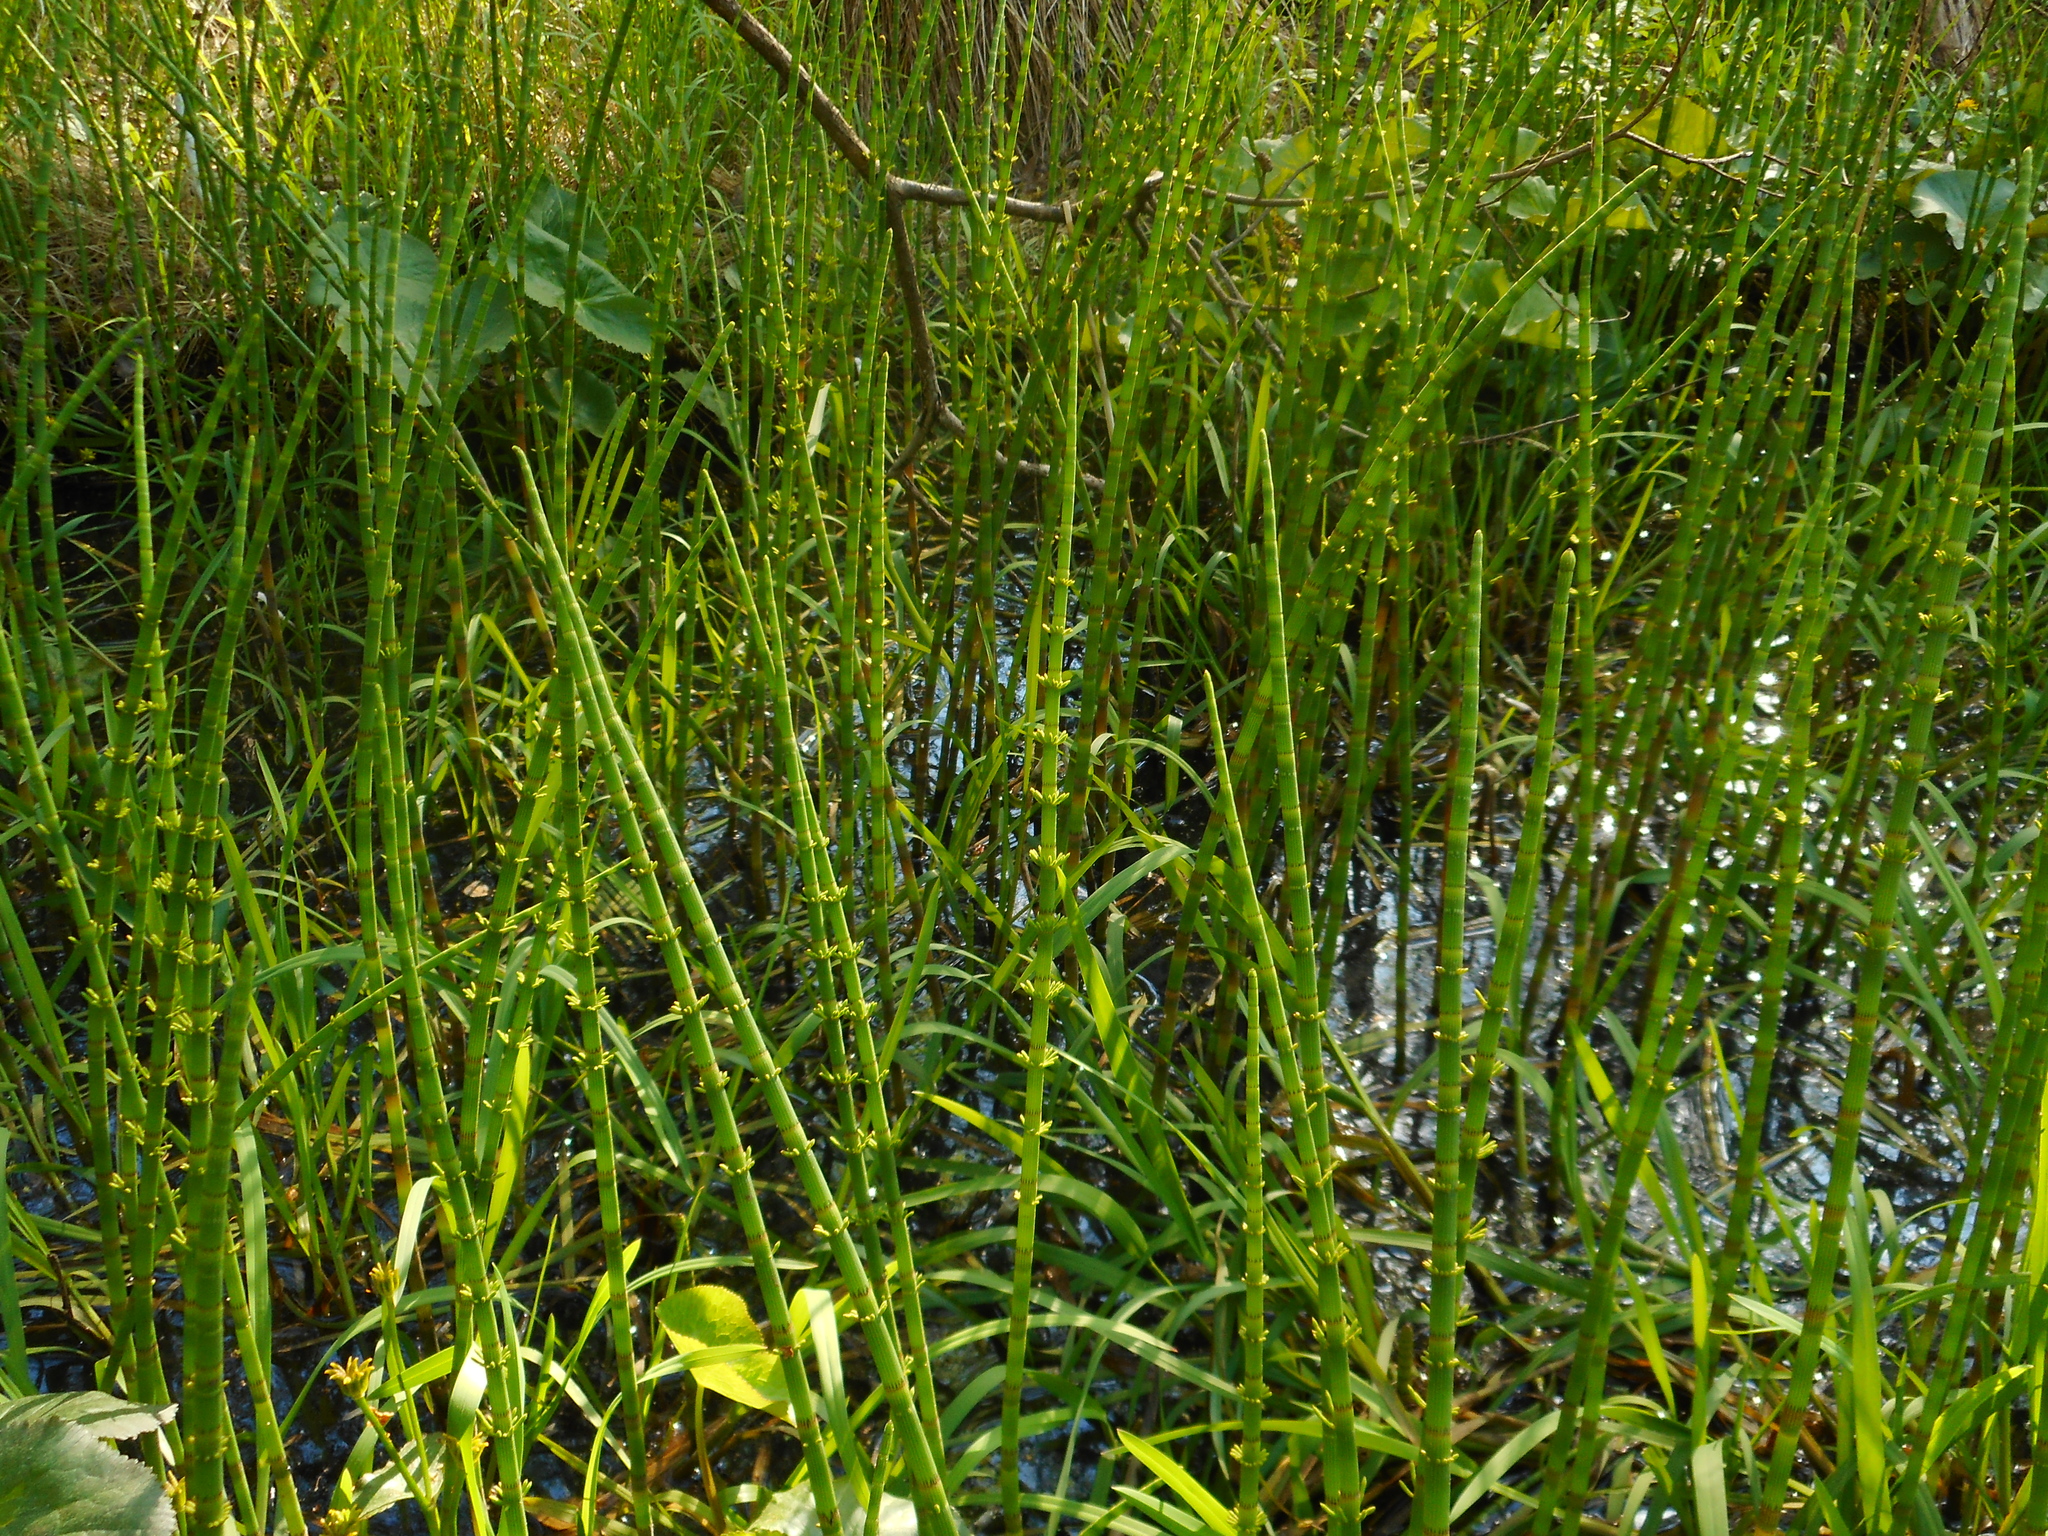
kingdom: Plantae
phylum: Tracheophyta
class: Polypodiopsida
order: Equisetales
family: Equisetaceae
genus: Equisetum
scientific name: Equisetum fluviatile
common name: Water horsetail
